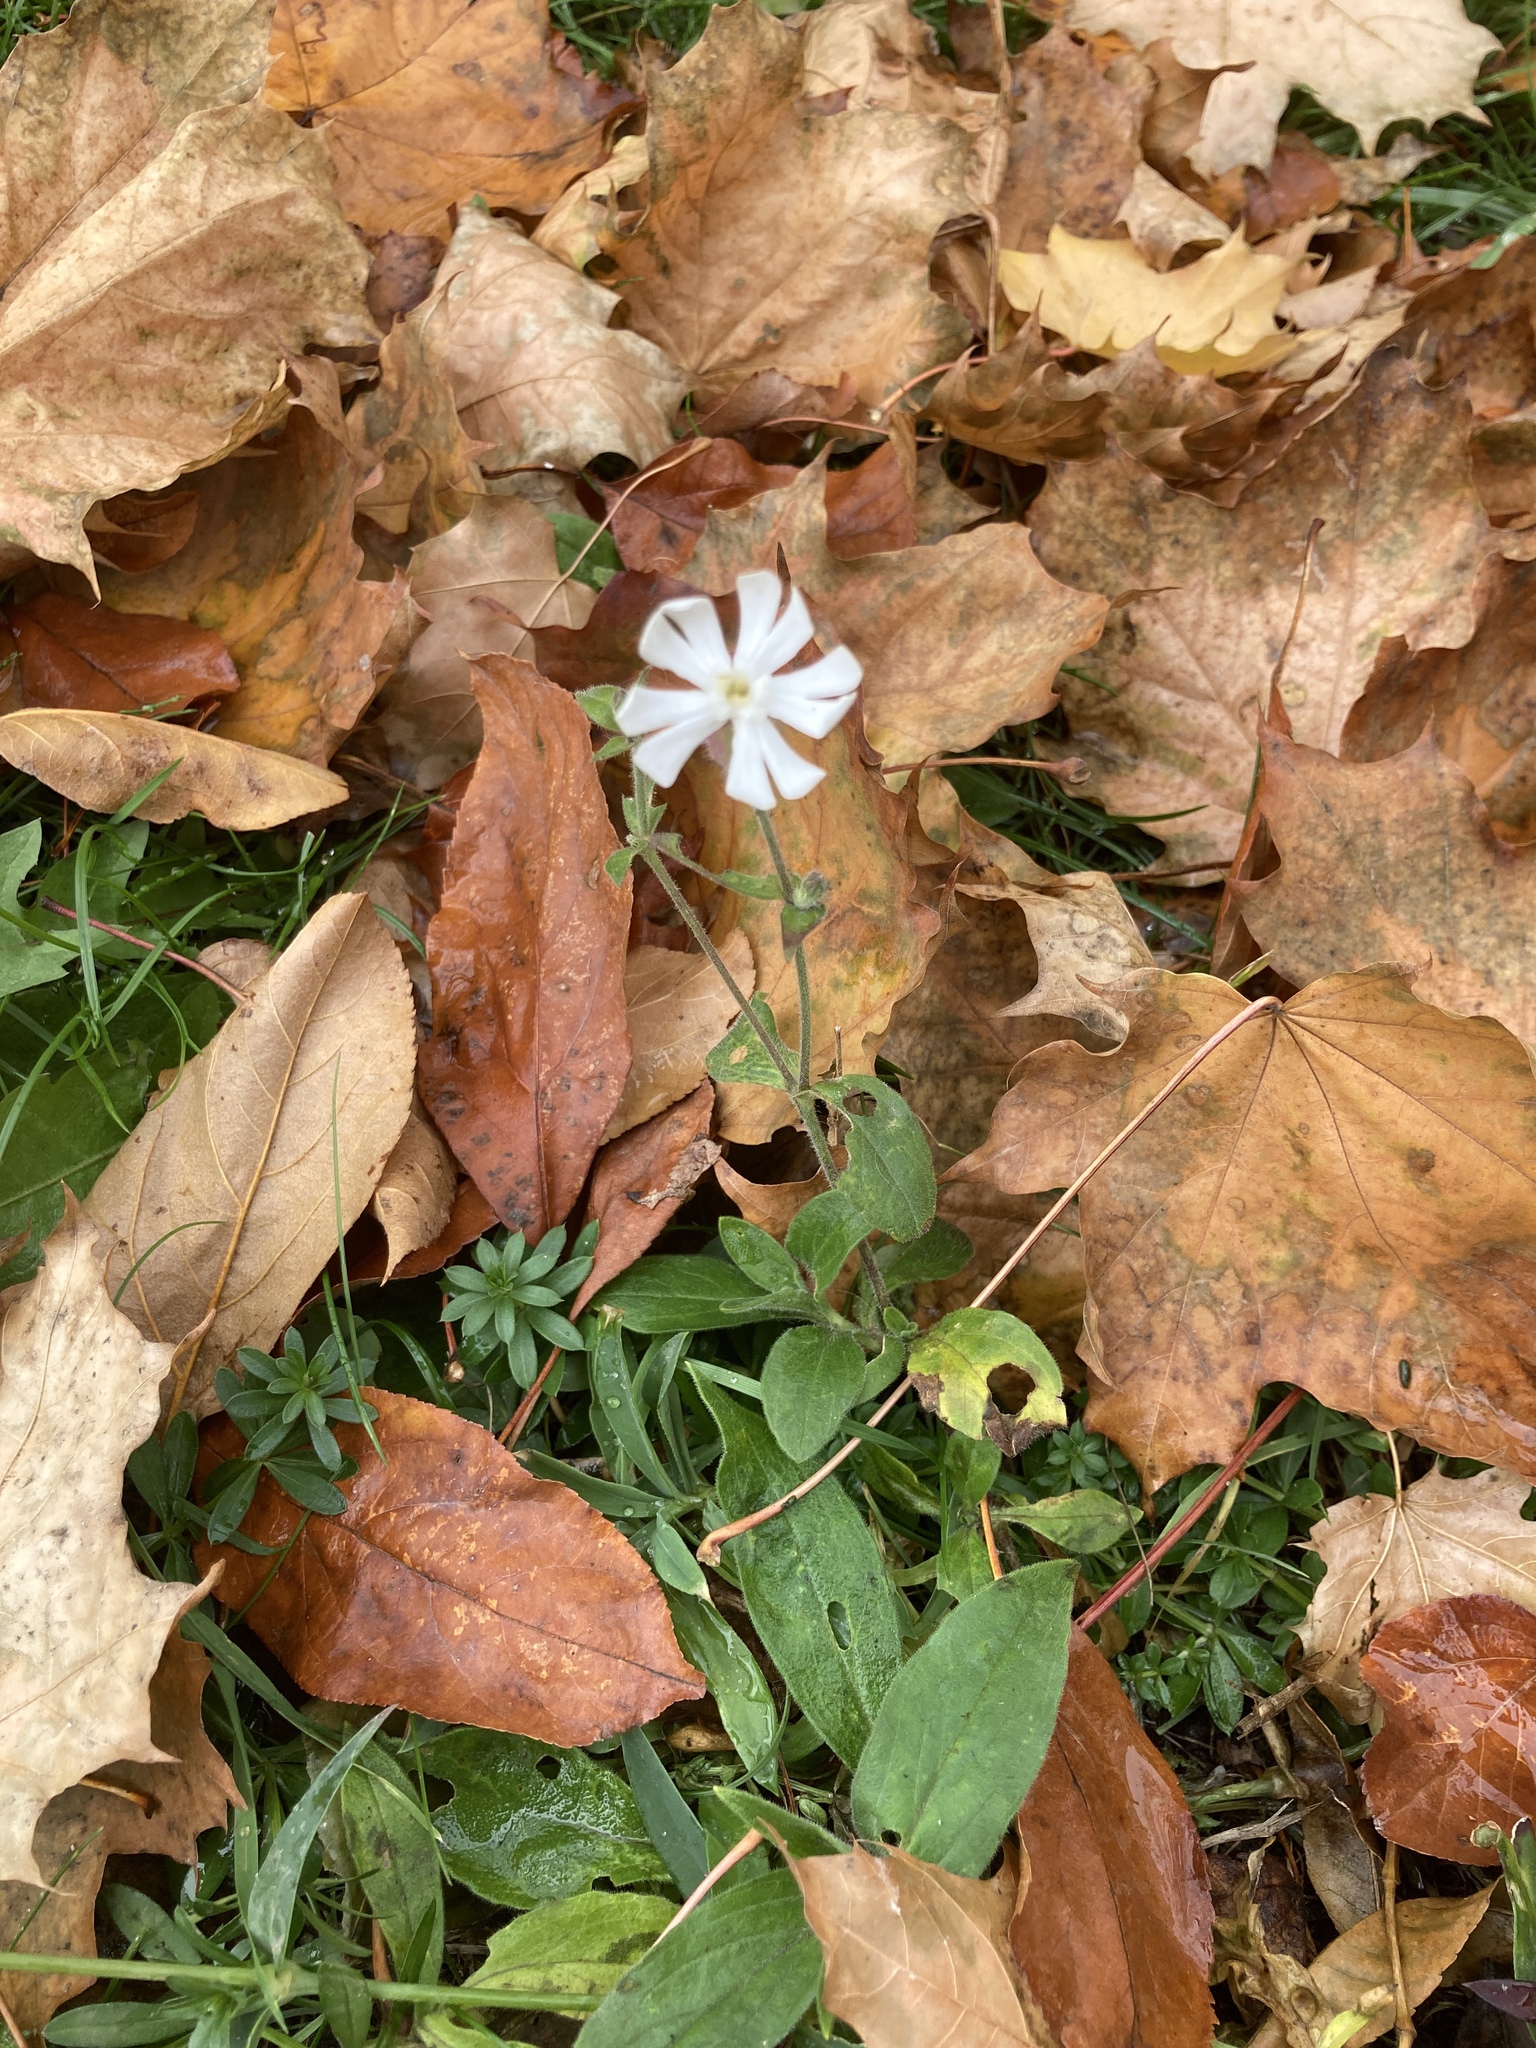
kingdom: Plantae
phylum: Tracheophyta
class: Magnoliopsida
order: Caryophyllales
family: Caryophyllaceae
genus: Silene
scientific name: Silene latifolia
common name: White campion
